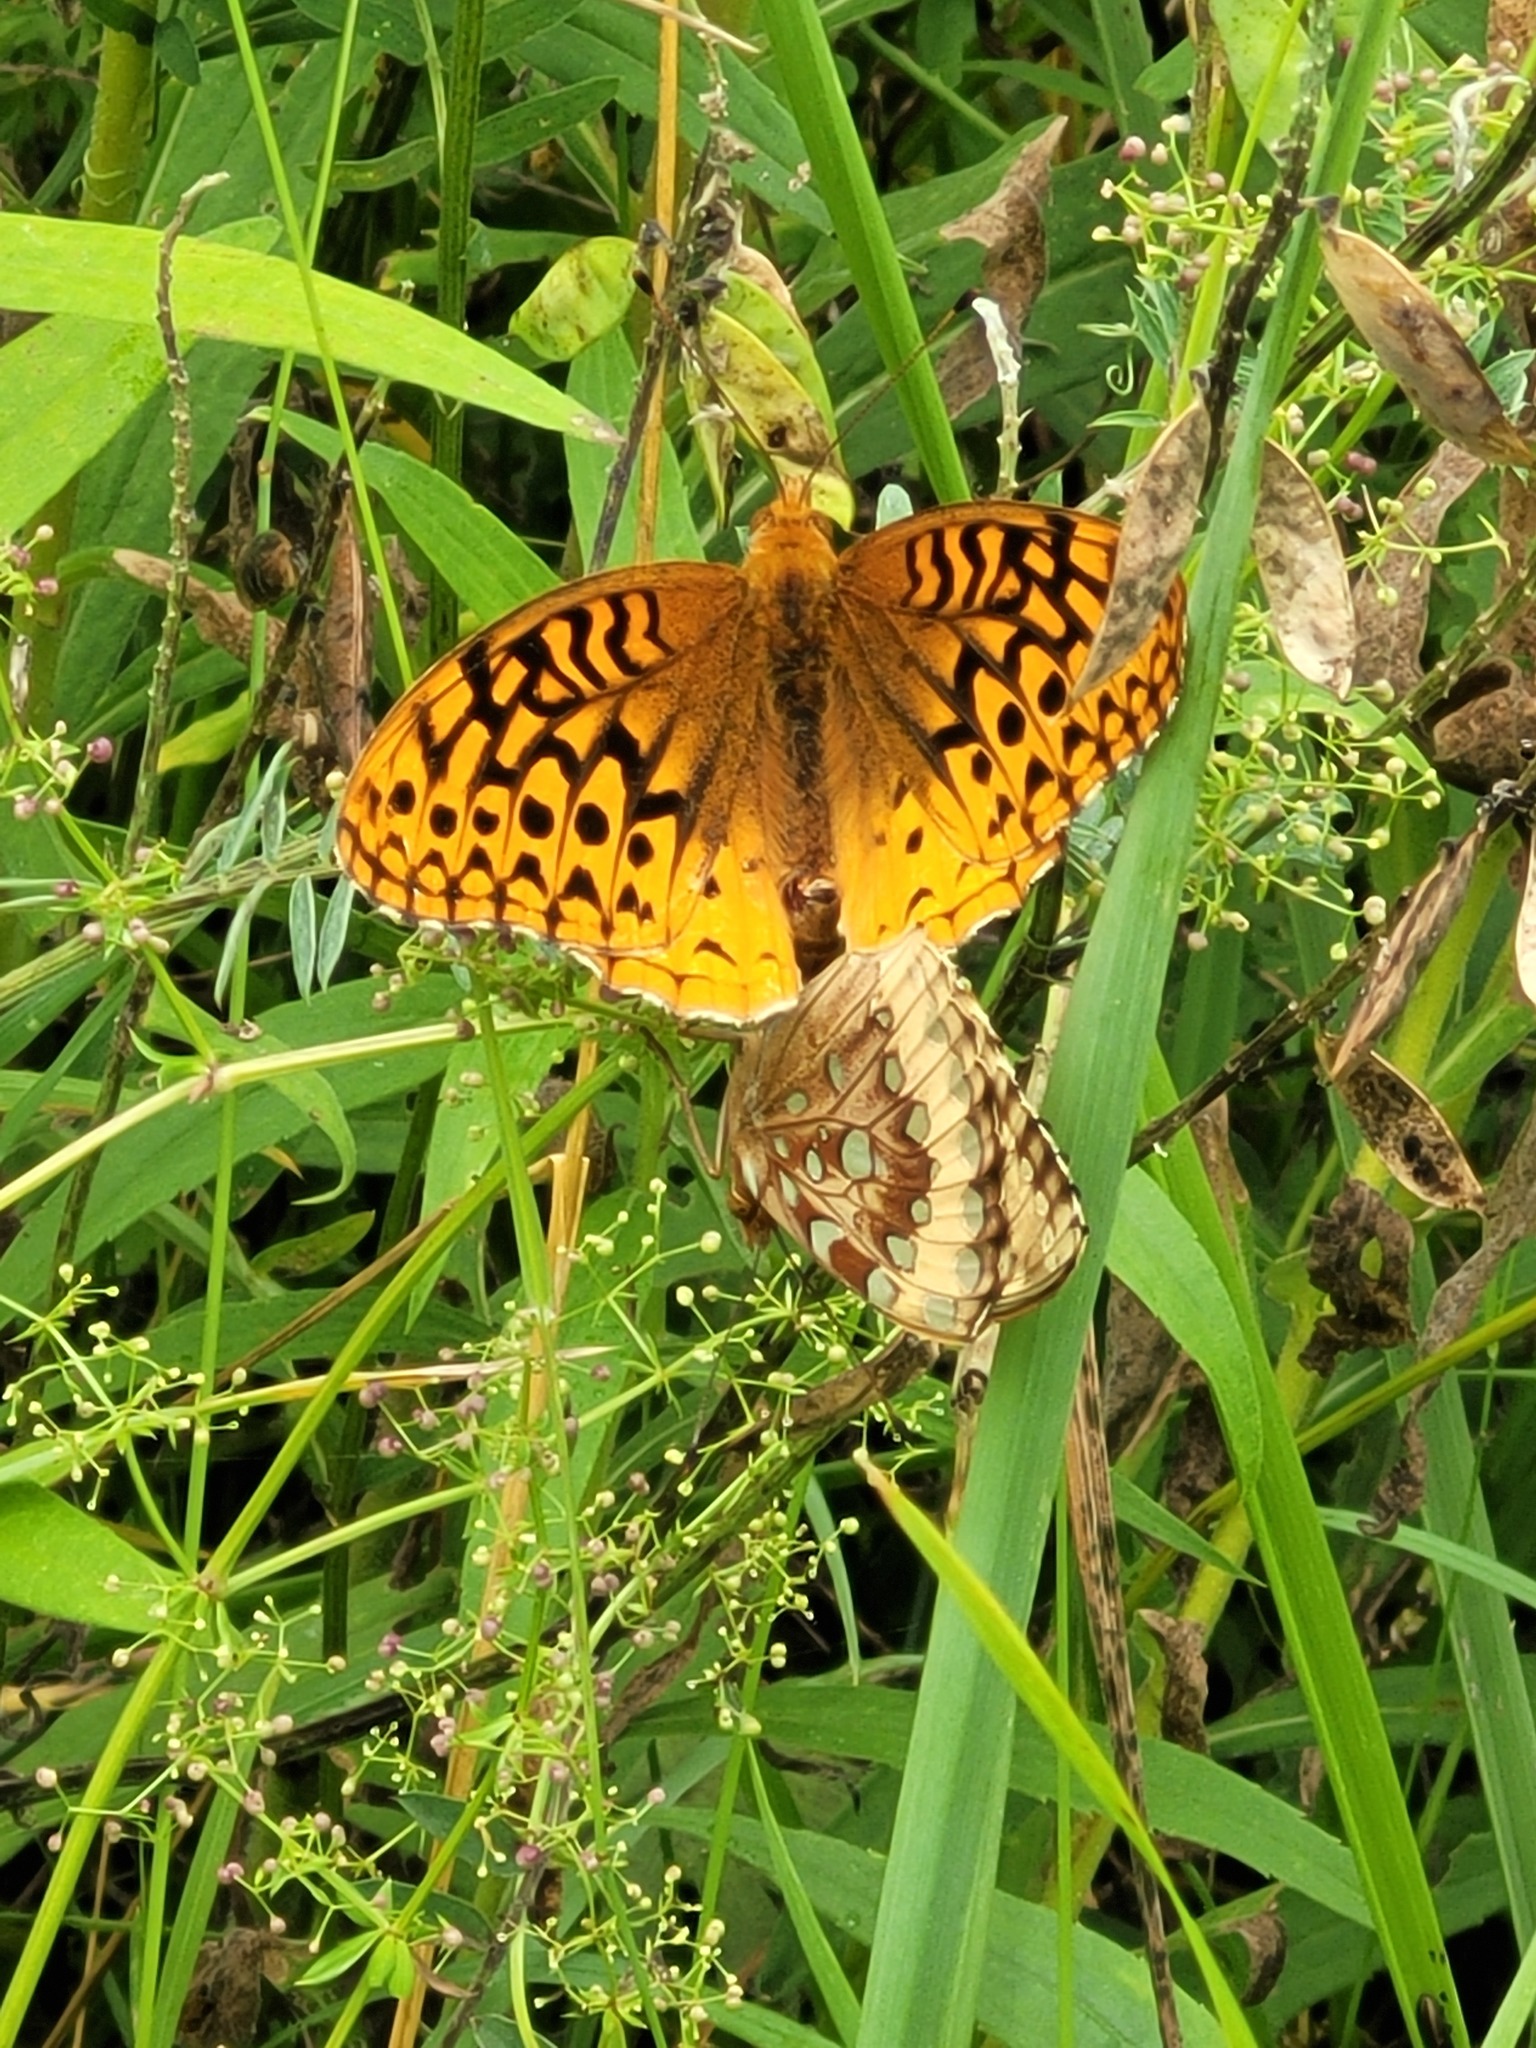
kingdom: Animalia
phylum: Arthropoda
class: Insecta
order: Lepidoptera
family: Nymphalidae
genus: Speyeria
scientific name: Speyeria cybele
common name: Great spangled fritillary
